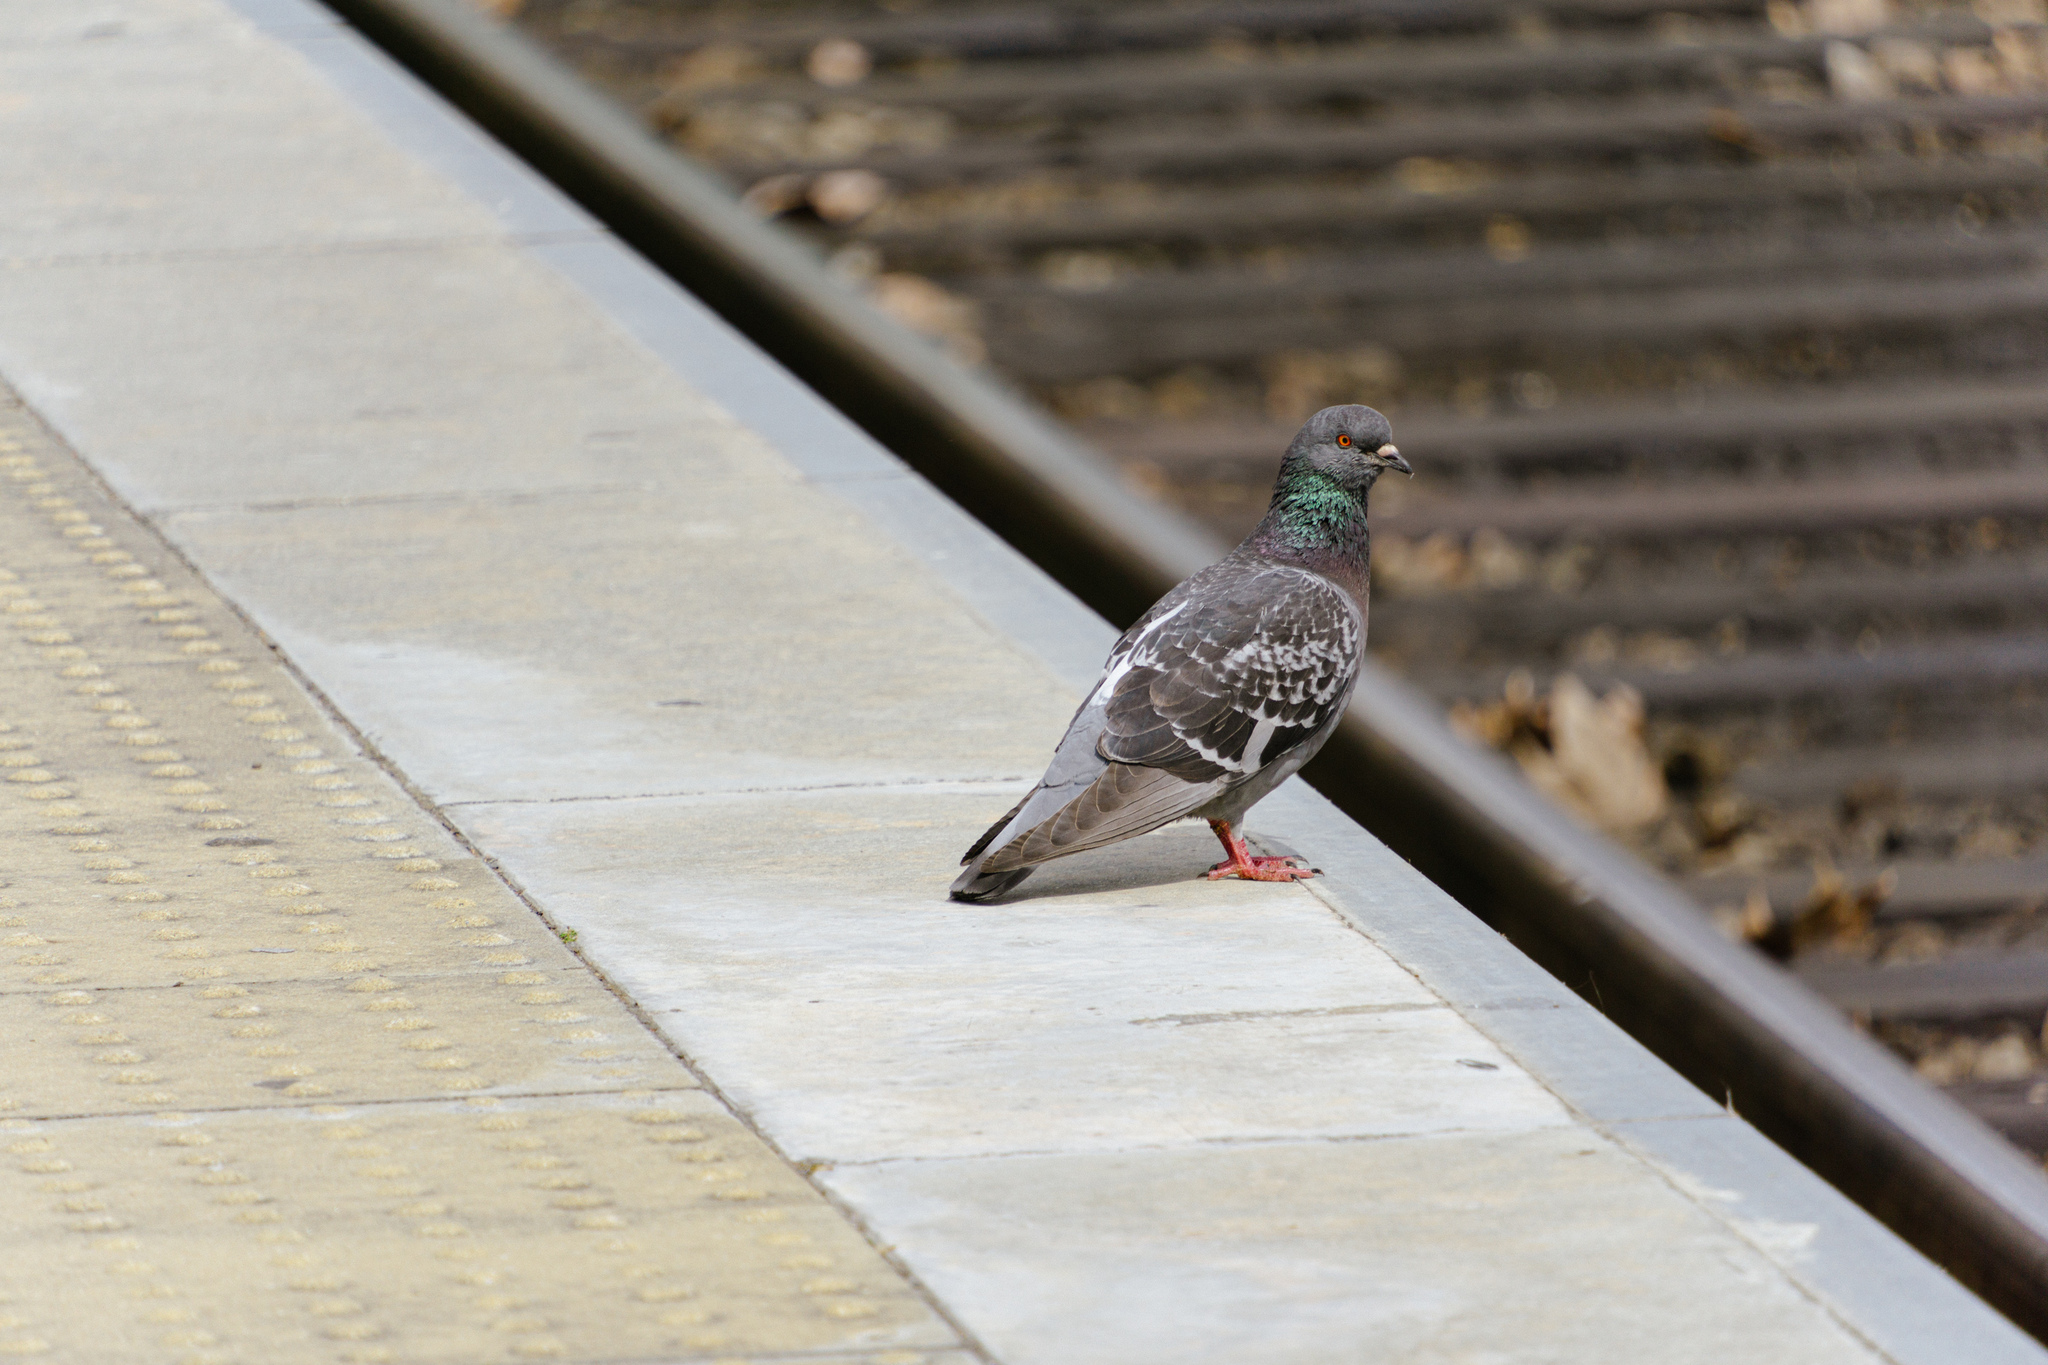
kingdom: Animalia
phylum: Chordata
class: Aves
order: Columbiformes
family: Columbidae
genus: Columba
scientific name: Columba livia
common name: Rock pigeon
